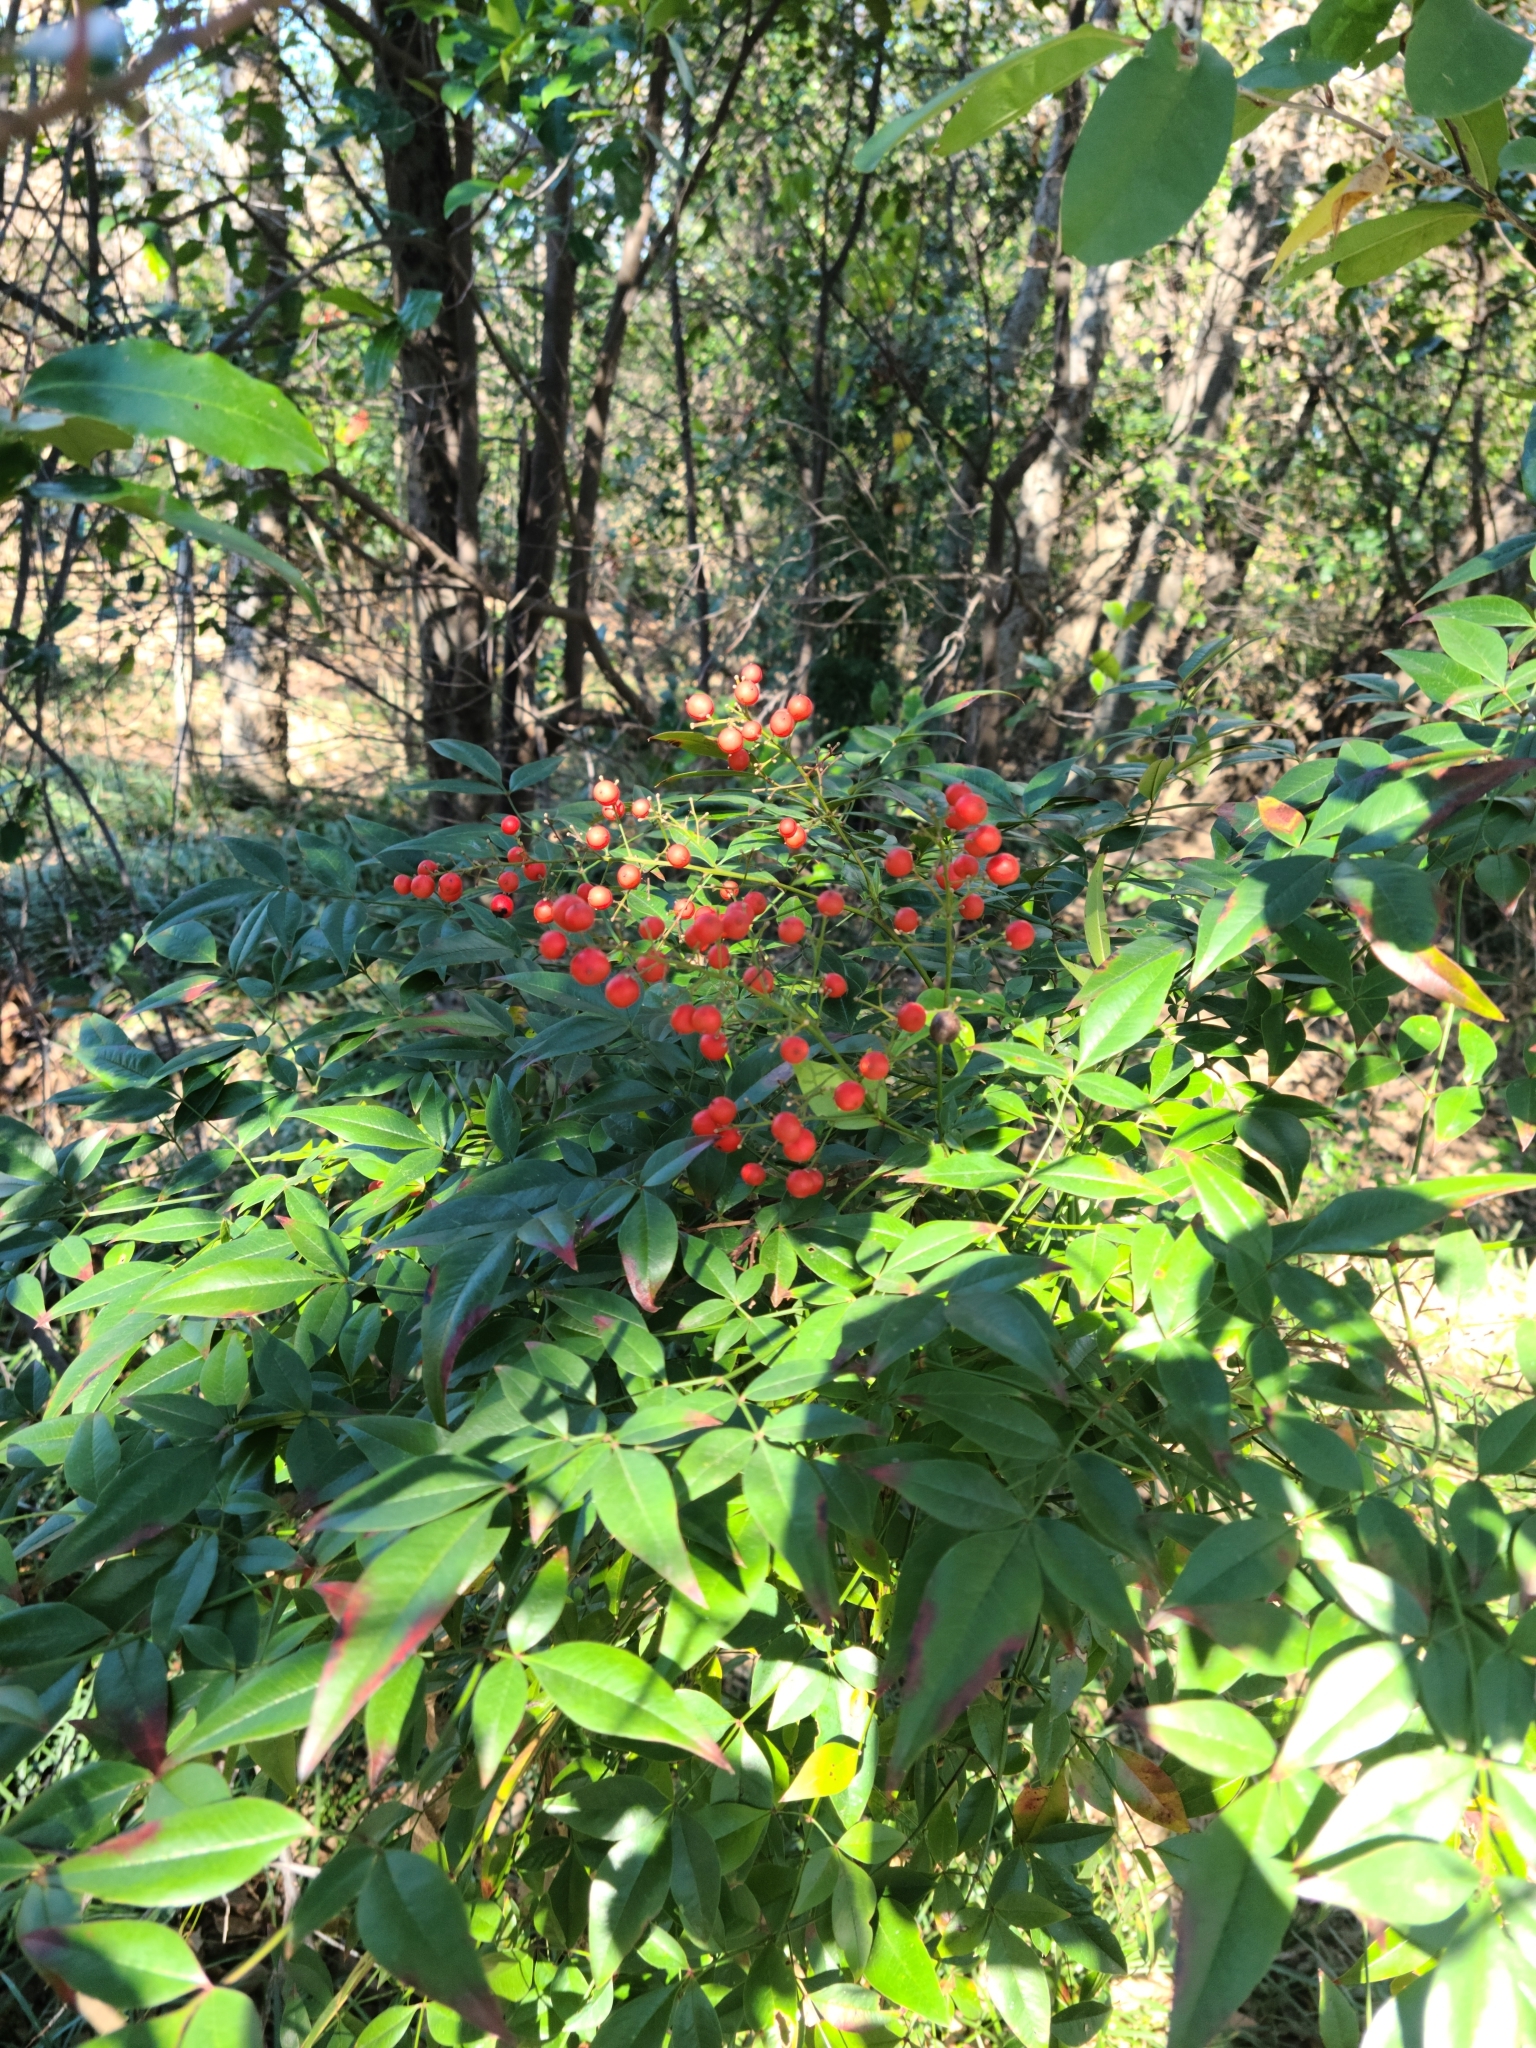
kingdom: Plantae
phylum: Tracheophyta
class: Magnoliopsida
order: Ranunculales
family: Berberidaceae
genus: Nandina
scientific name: Nandina domestica
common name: Sacred bamboo
